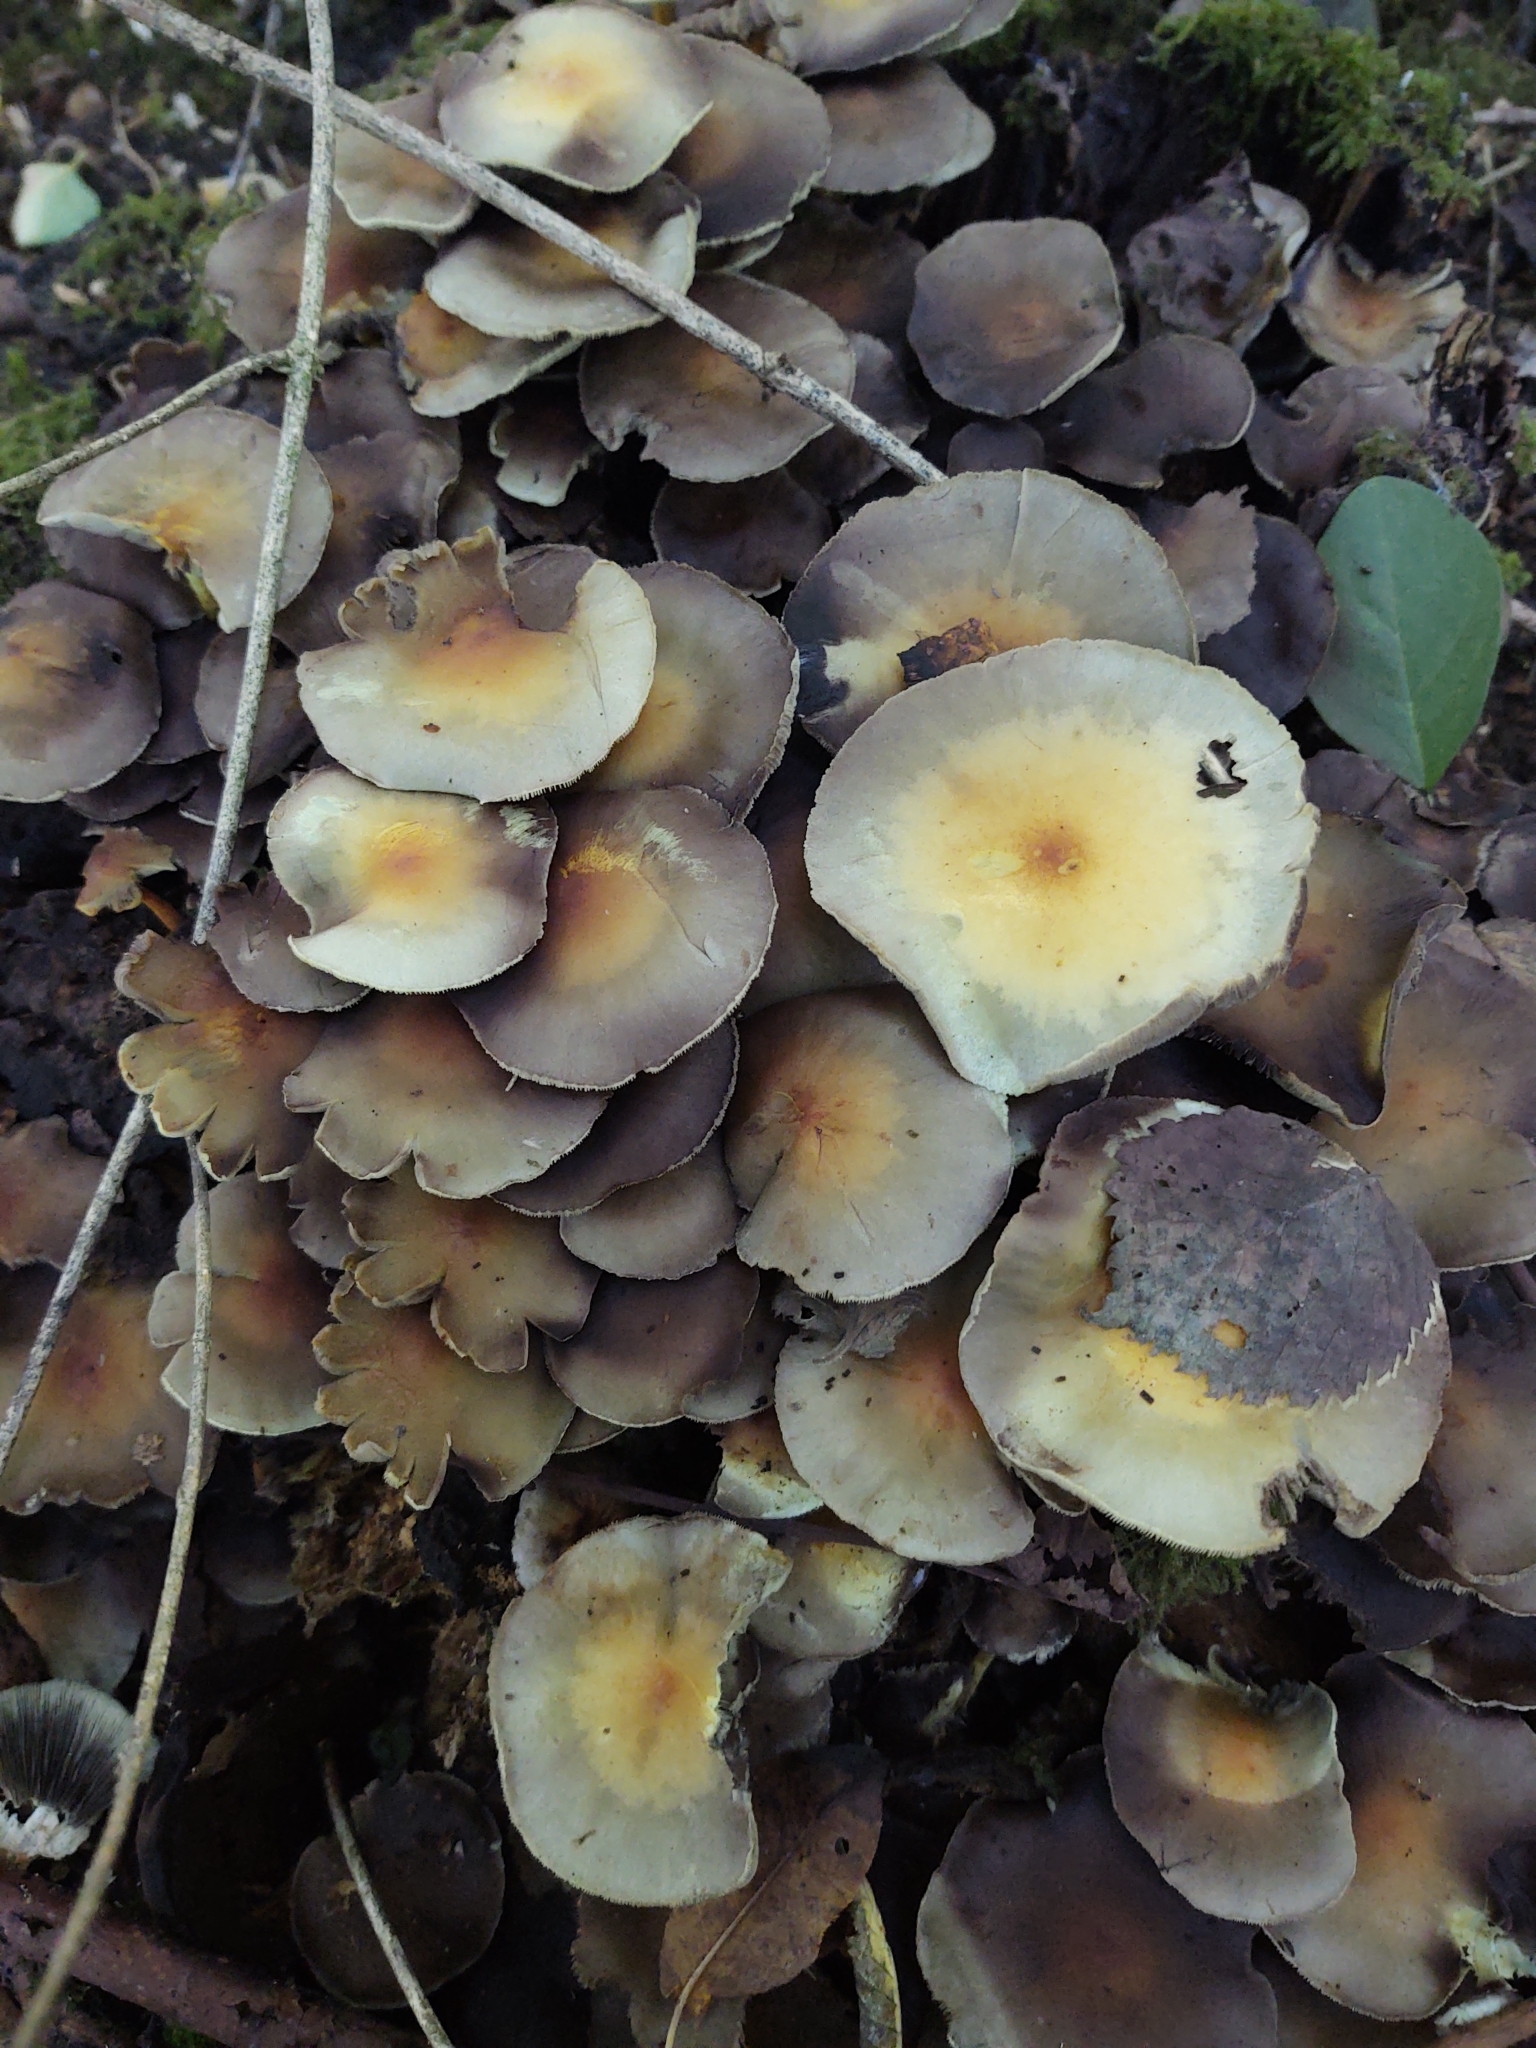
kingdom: Fungi
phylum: Basidiomycota
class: Agaricomycetes
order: Agaricales
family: Strophariaceae
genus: Hypholoma
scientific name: Hypholoma fasciculare
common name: Sulphur tuft
